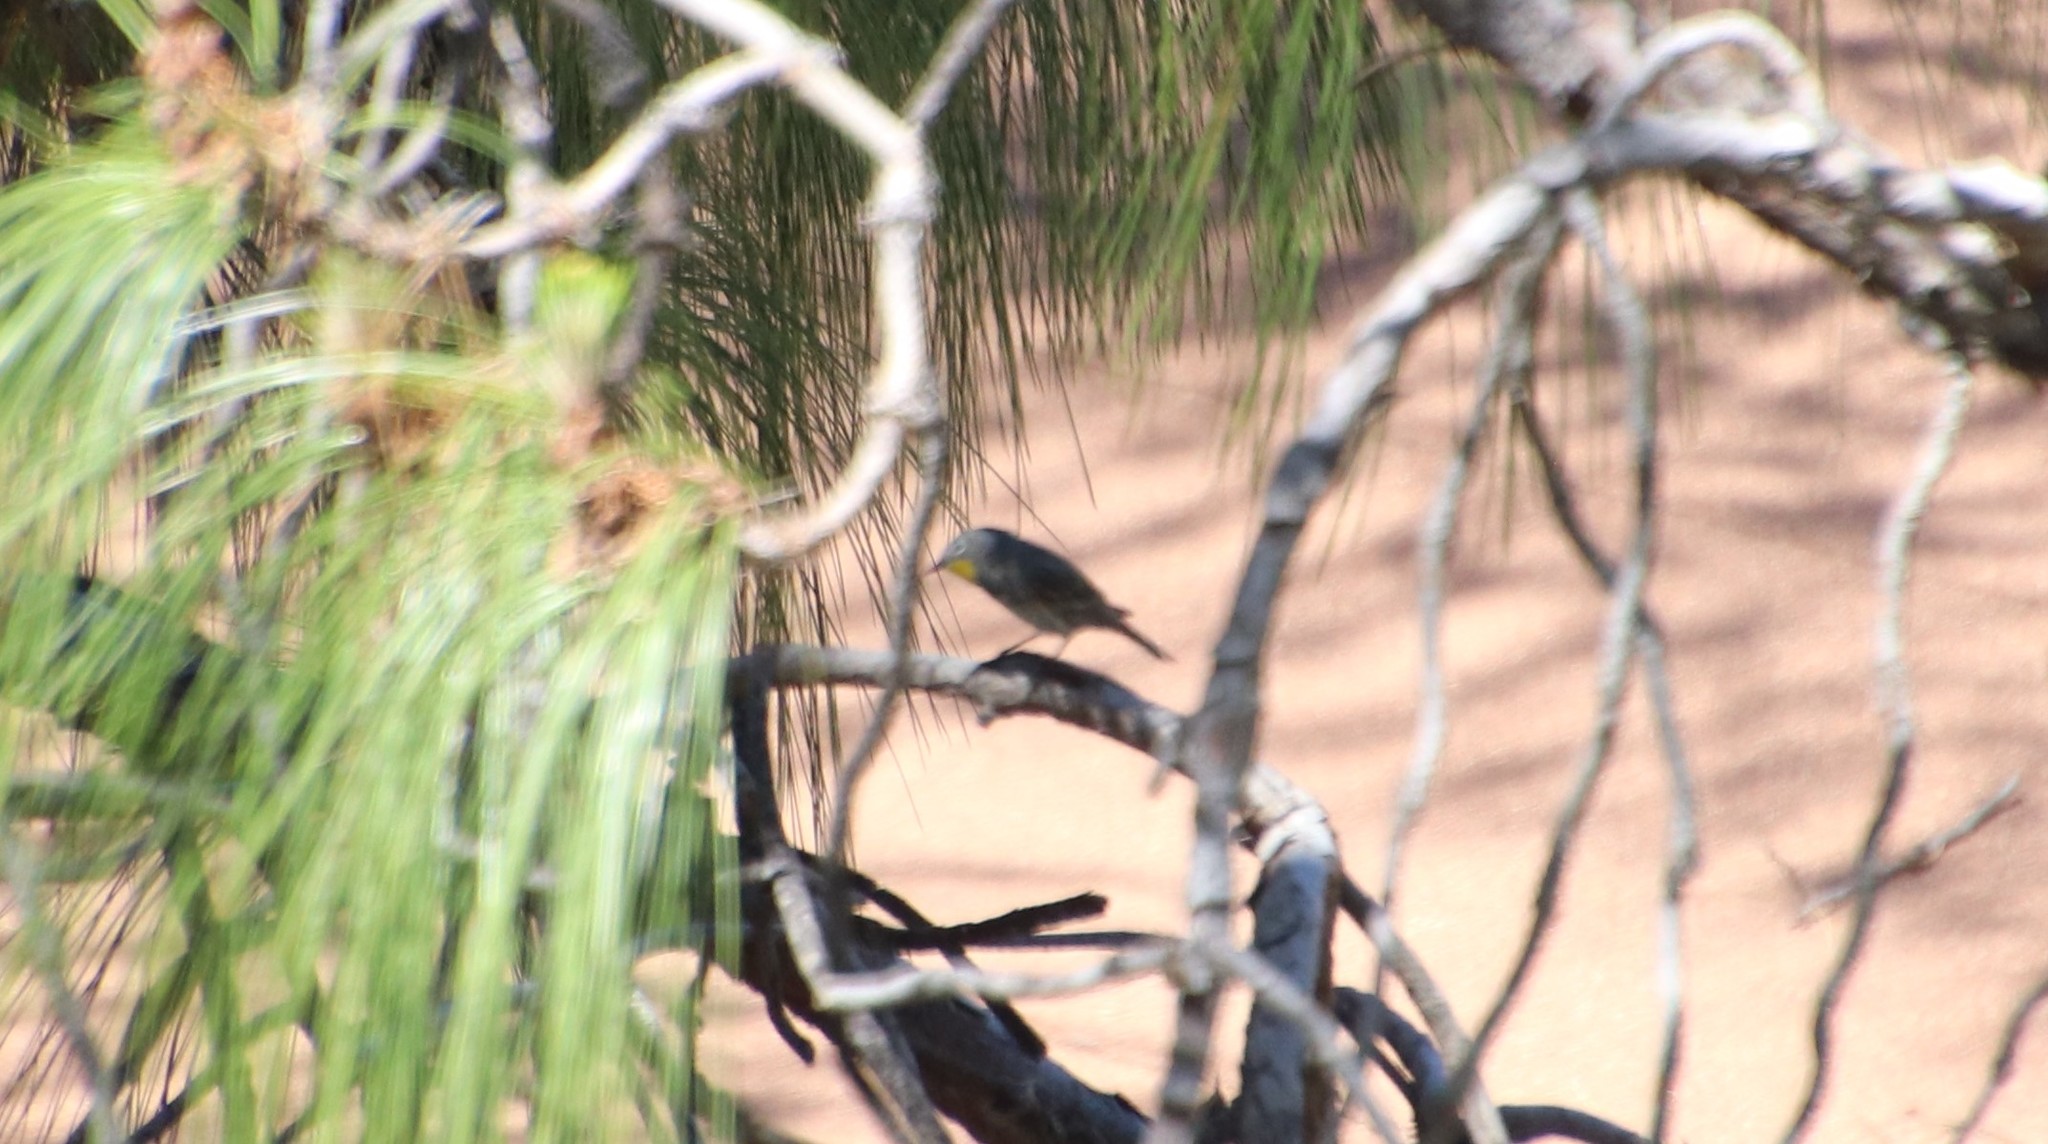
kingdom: Animalia
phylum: Chordata
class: Aves
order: Passeriformes
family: Parulidae
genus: Setophaga
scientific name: Setophaga auduboni
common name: Audubon's warbler
